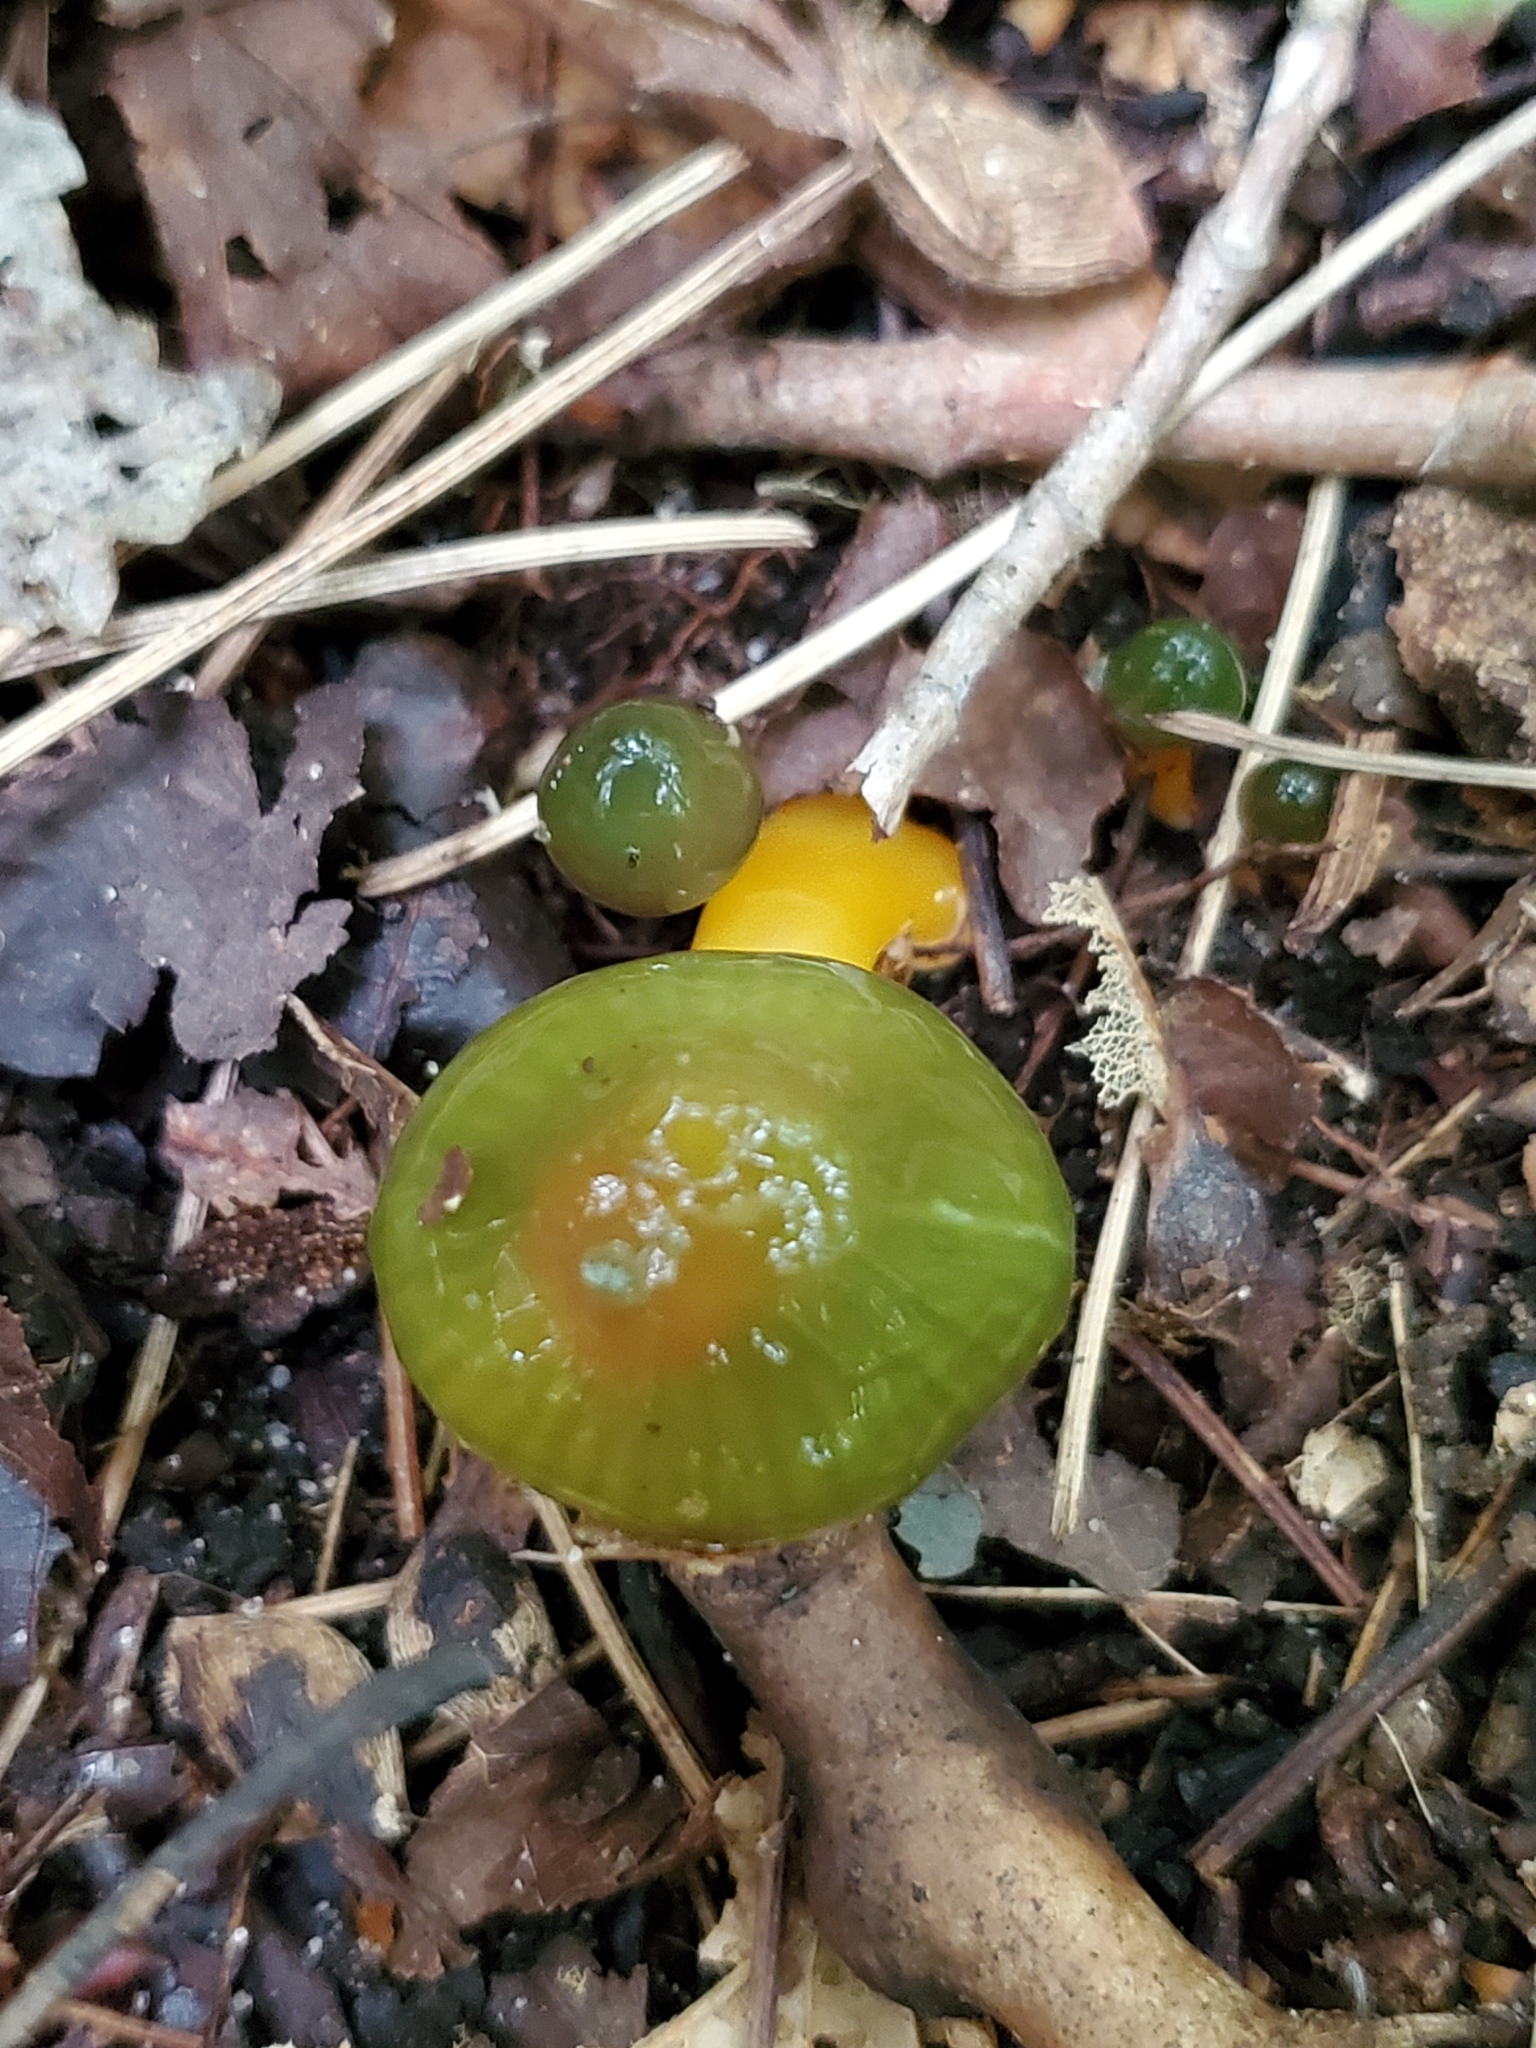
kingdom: Fungi
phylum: Basidiomycota
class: Agaricomycetes
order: Agaricales
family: Hygrophoraceae
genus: Gliophorus
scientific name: Gliophorus psittacinus
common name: Parrot wax-cap
